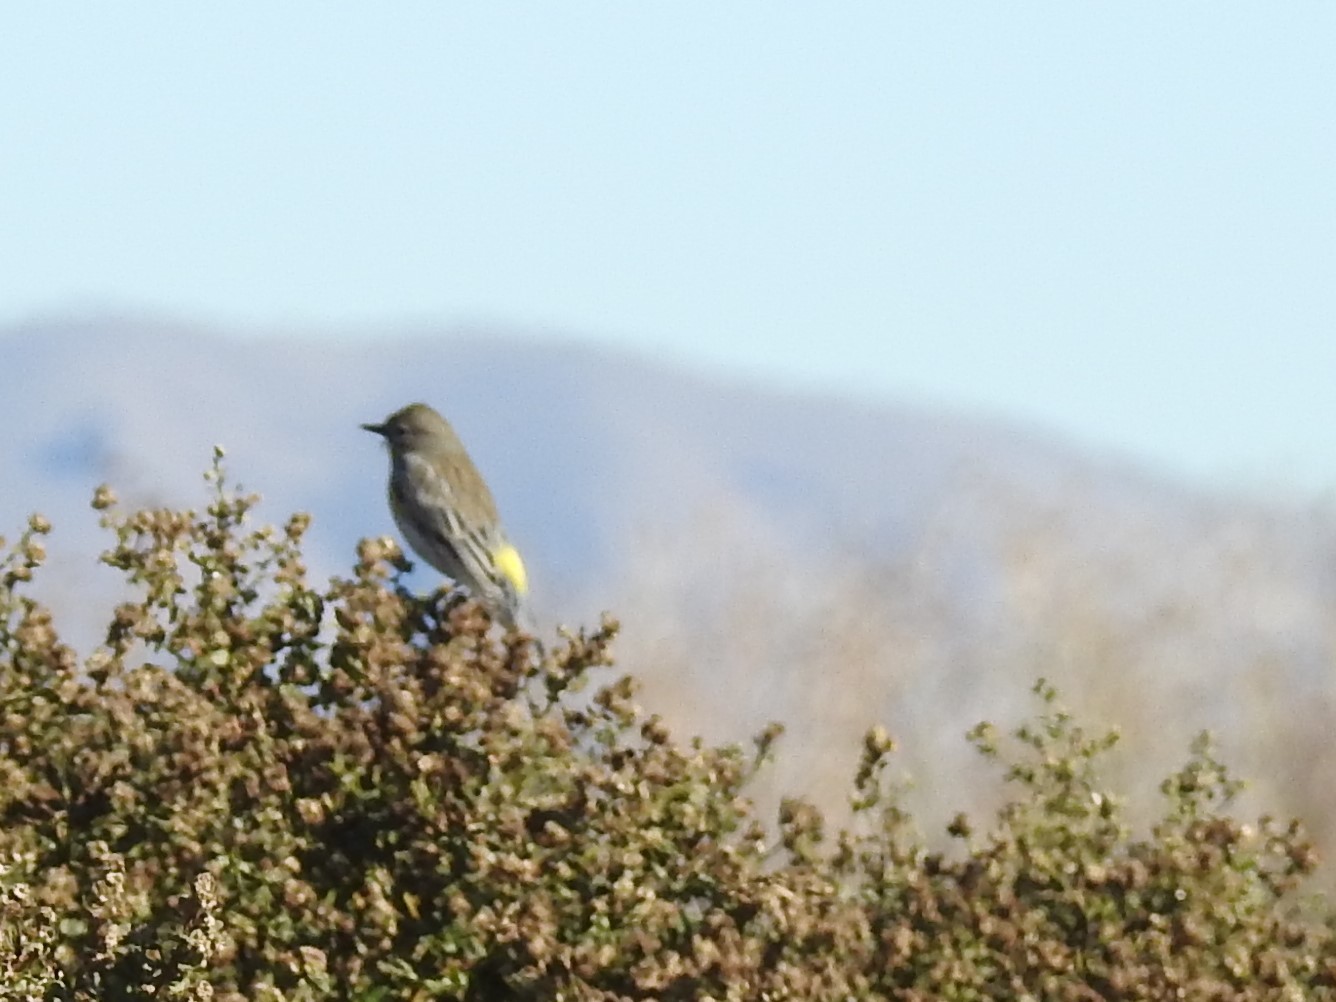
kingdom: Animalia
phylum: Chordata
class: Aves
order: Passeriformes
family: Parulidae
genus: Setophaga
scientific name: Setophaga coronata
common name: Myrtle warbler
